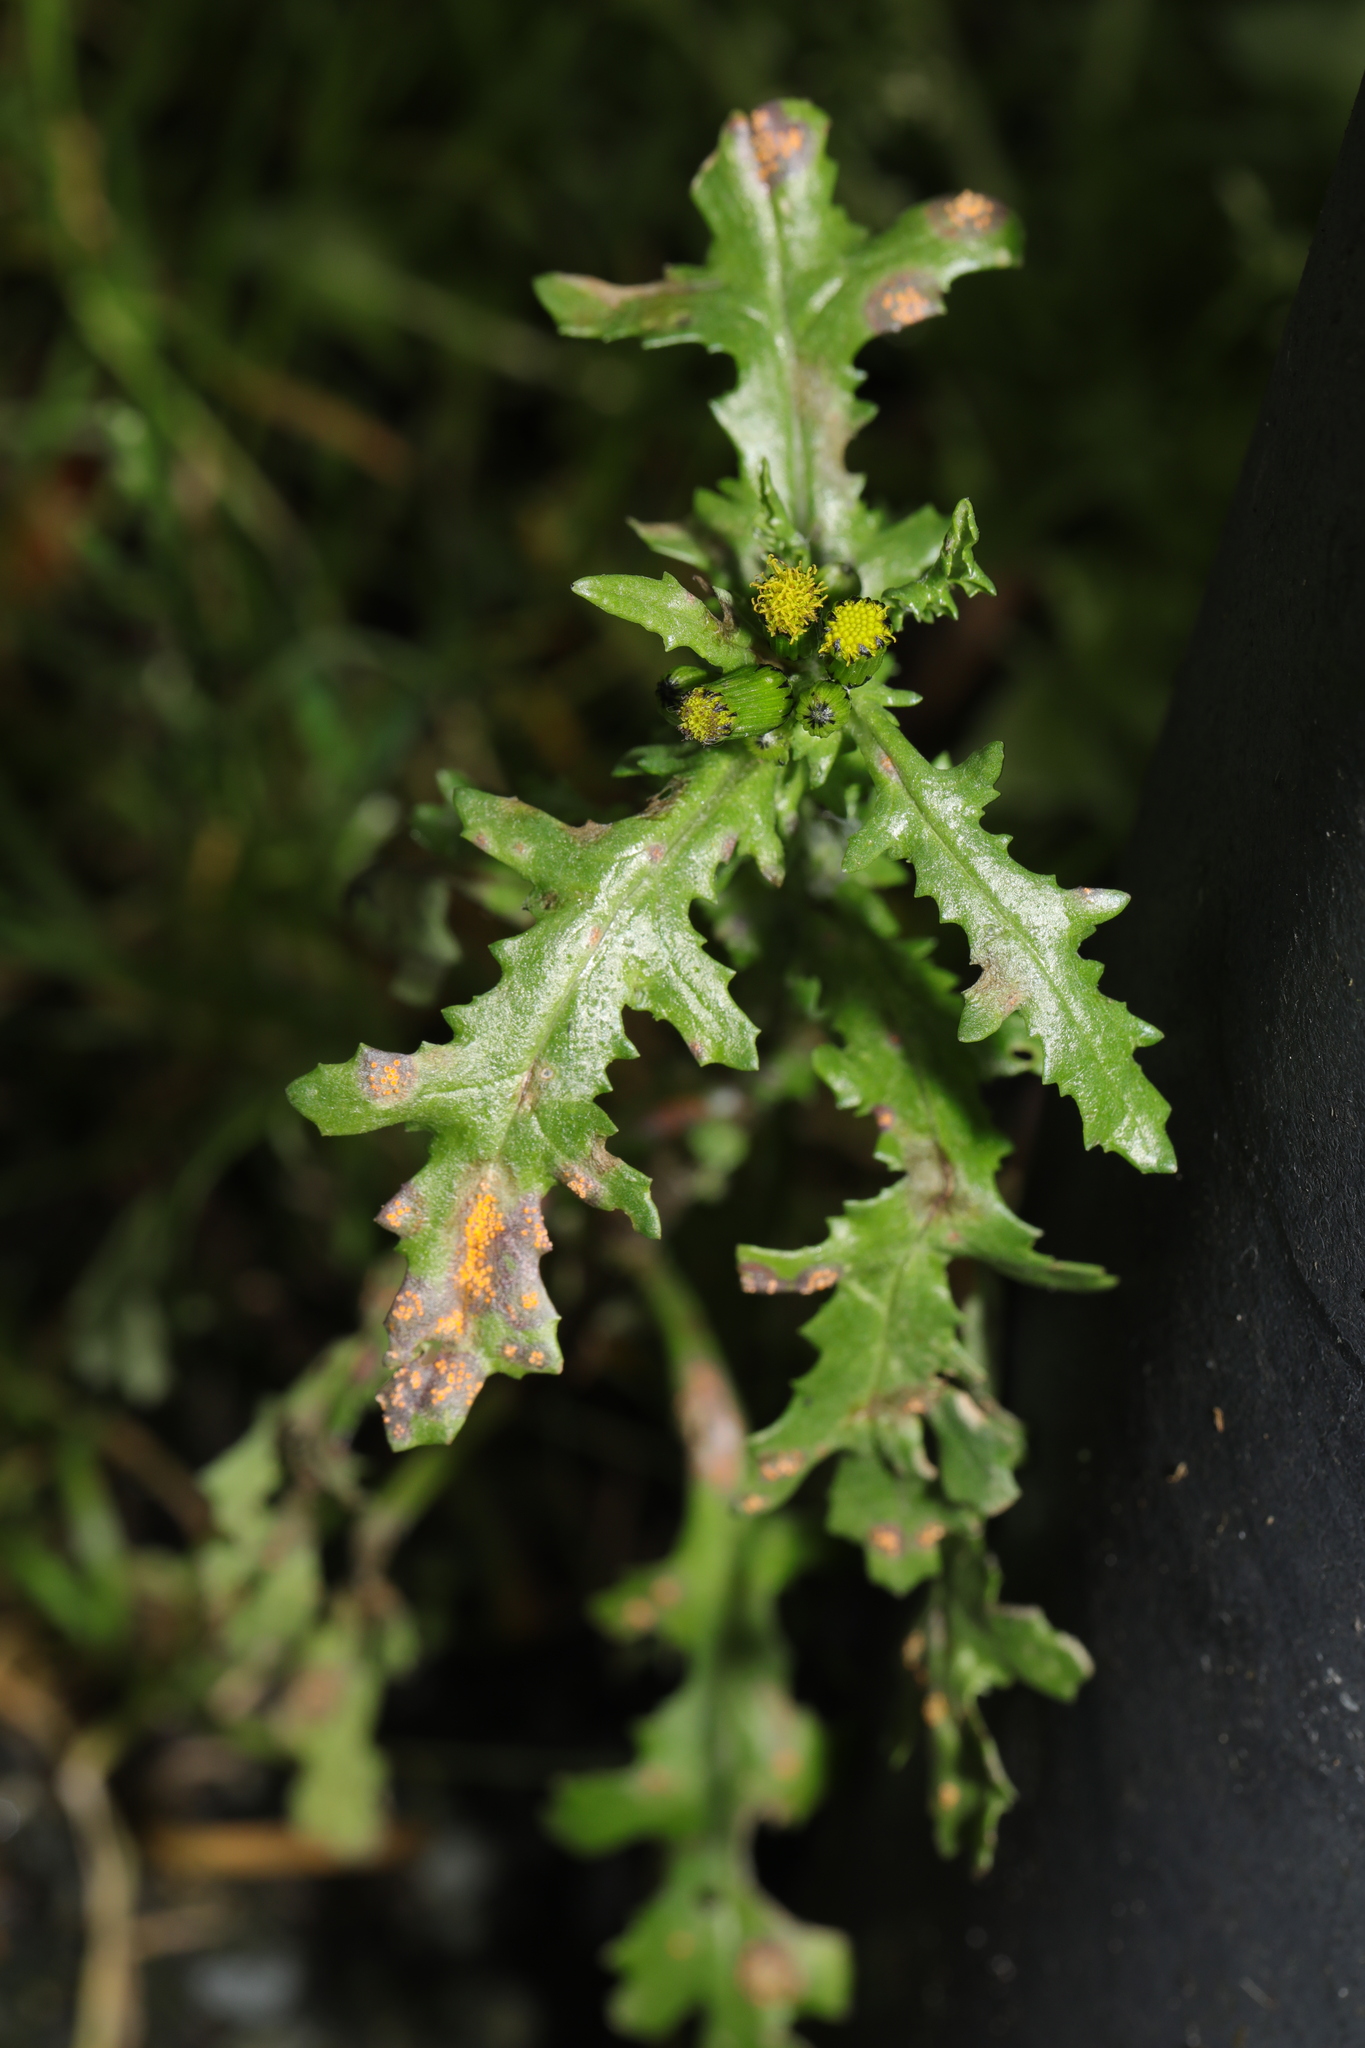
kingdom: Plantae
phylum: Tracheophyta
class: Magnoliopsida
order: Asterales
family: Asteraceae
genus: Senecio
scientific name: Senecio vulgaris
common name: Old-man-in-the-spring
